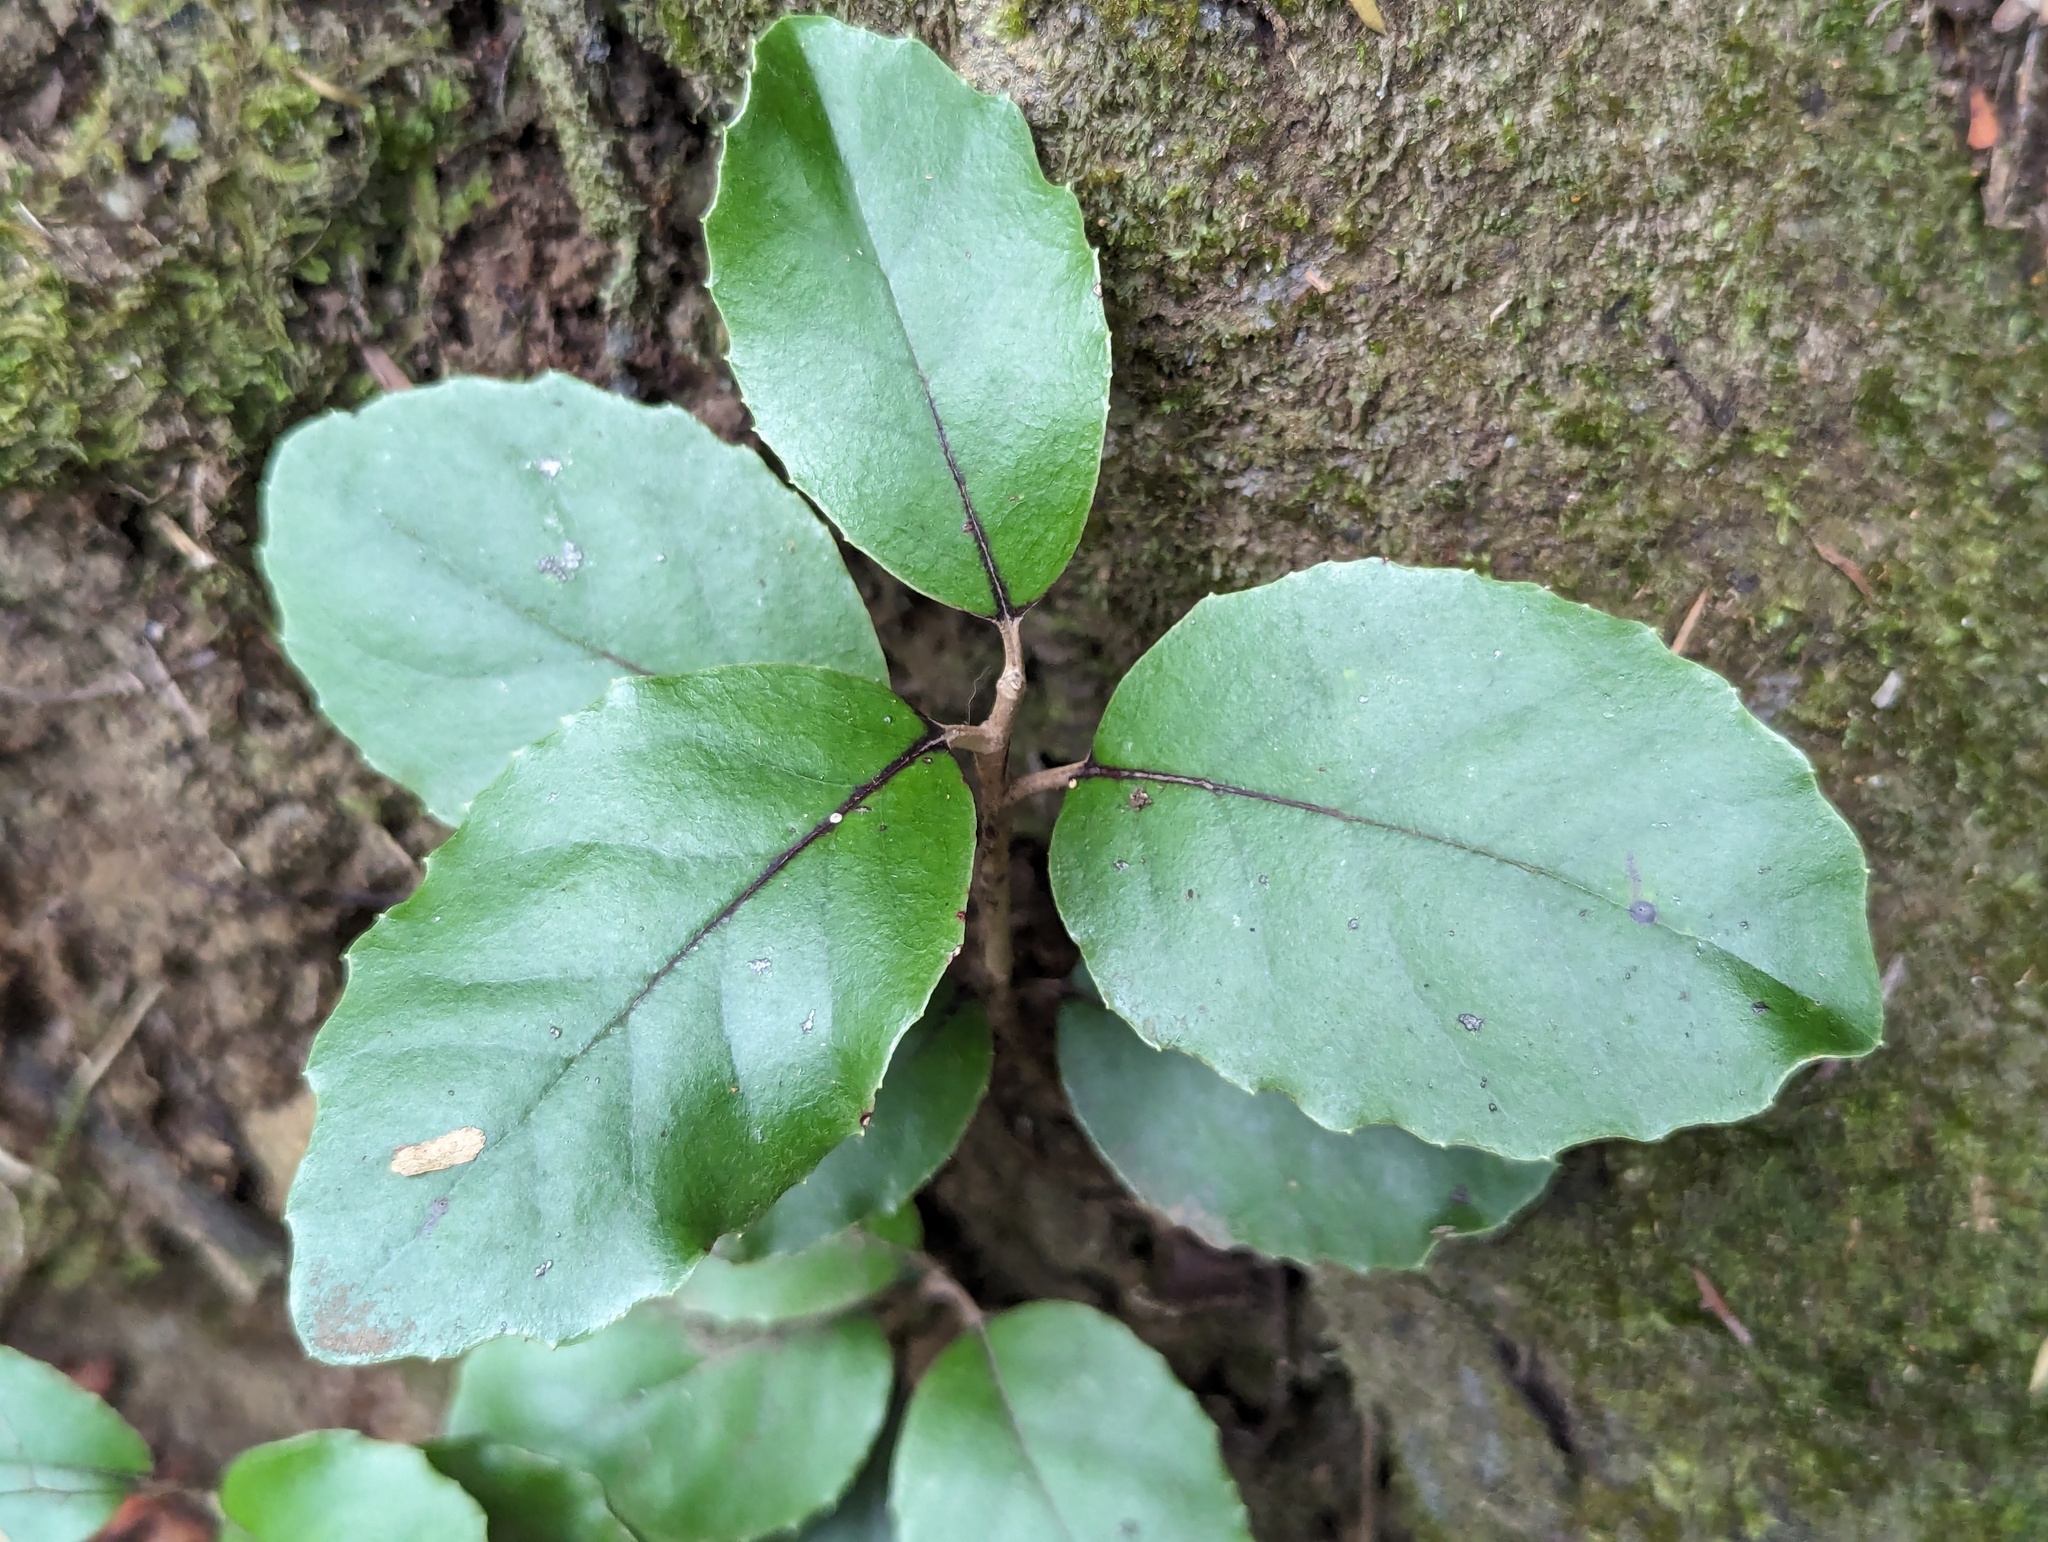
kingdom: Plantae
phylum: Tracheophyta
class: Magnoliopsida
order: Asterales
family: Asteraceae
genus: Olearia
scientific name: Olearia furfuracea
